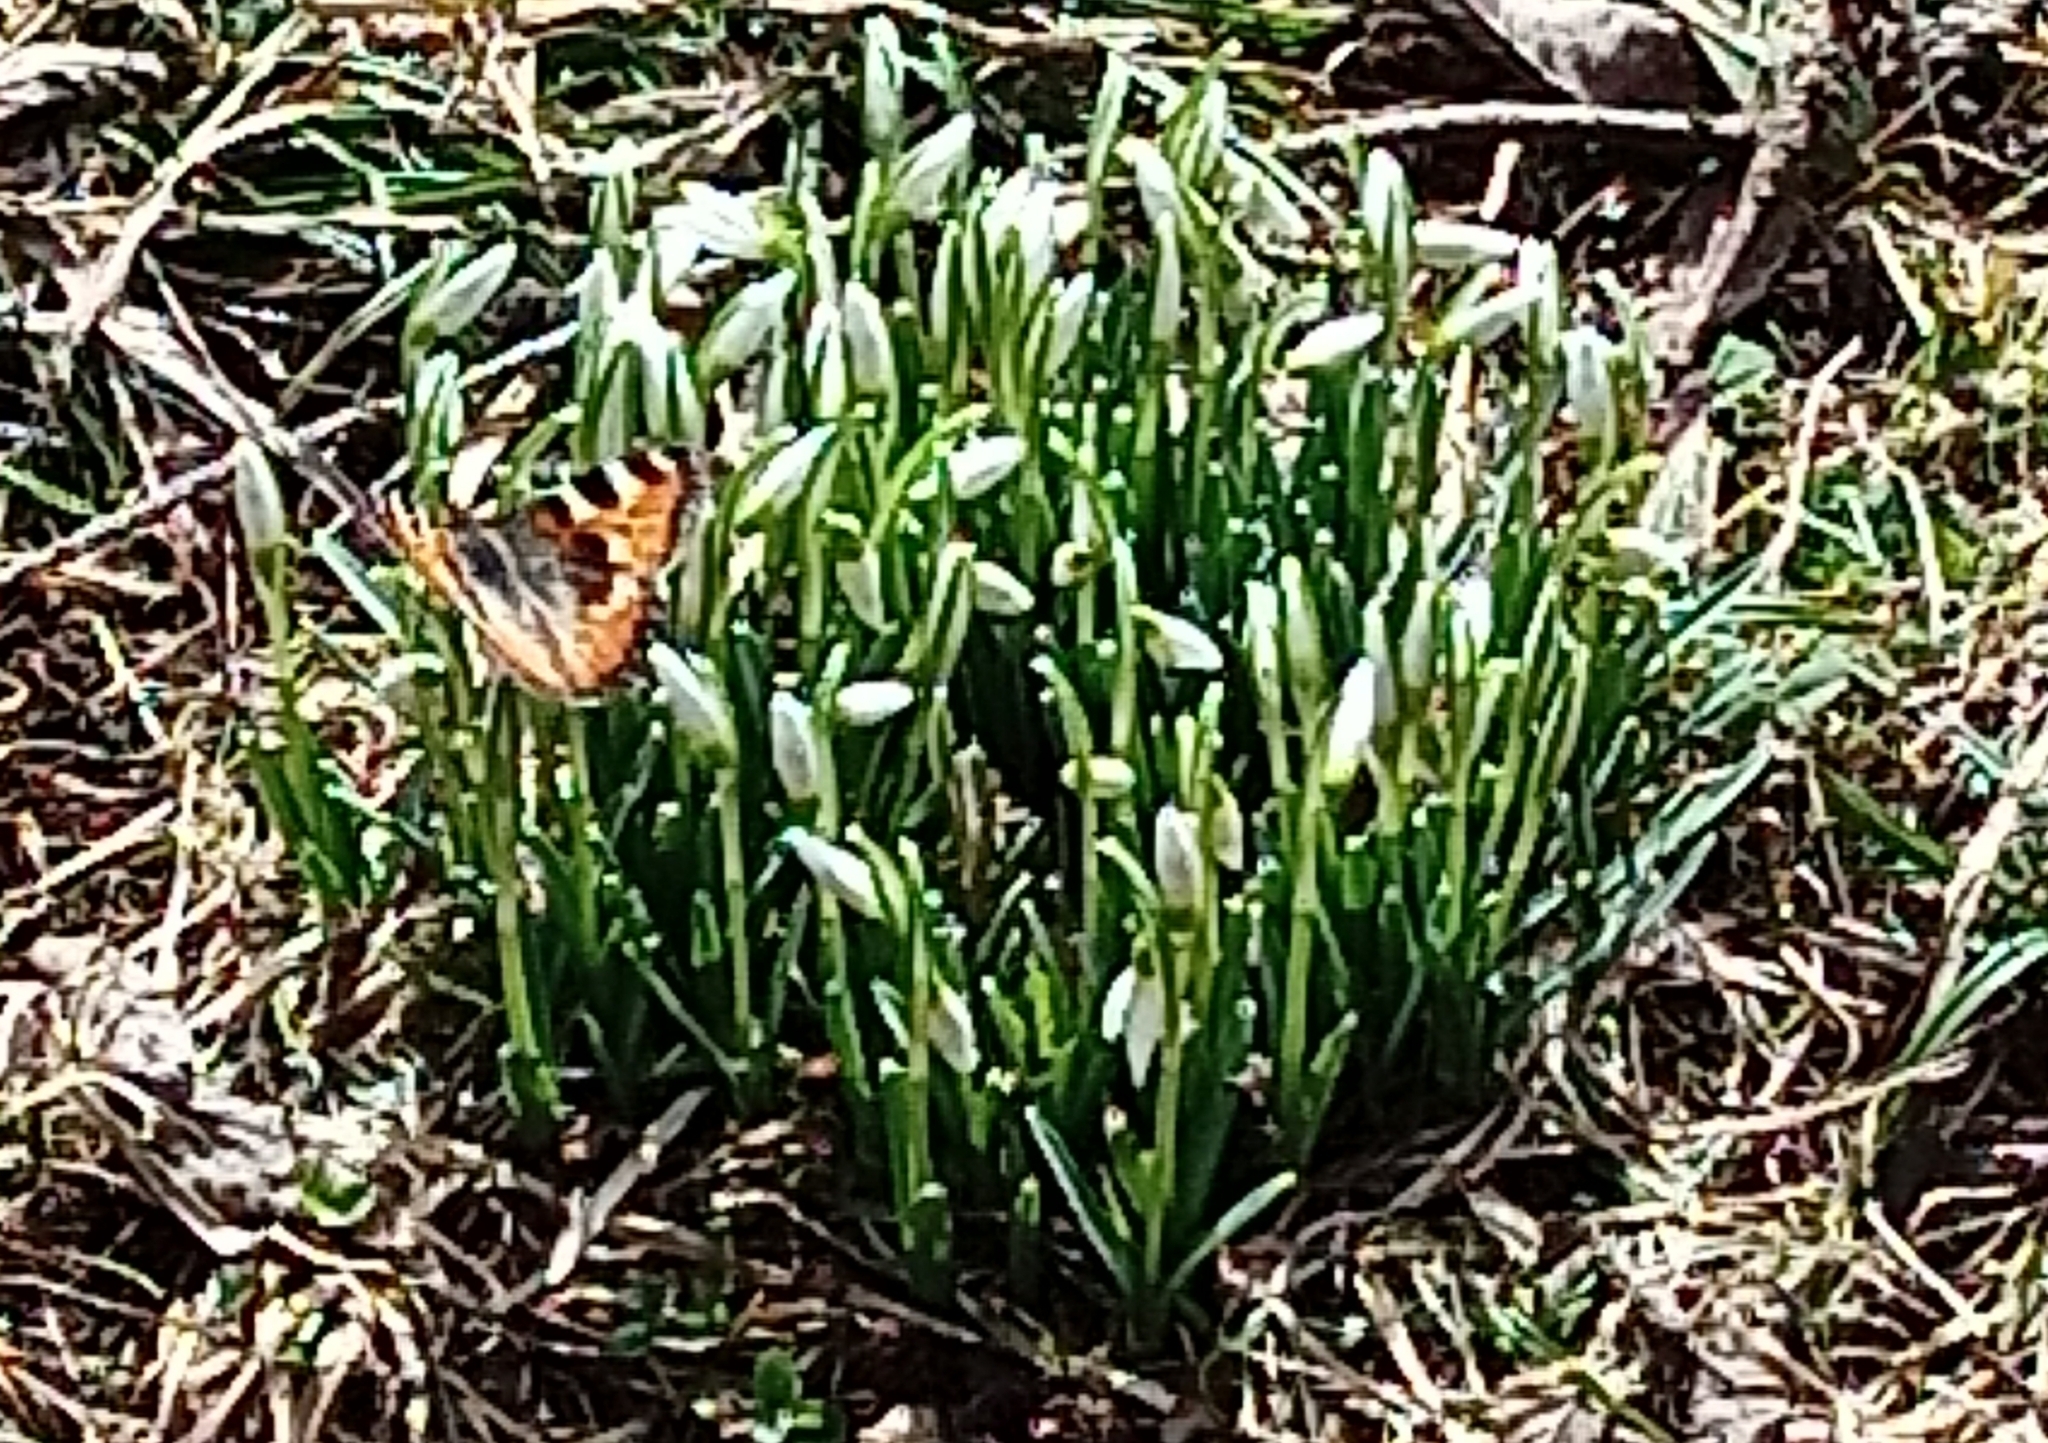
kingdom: Animalia
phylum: Arthropoda
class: Insecta
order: Lepidoptera
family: Nymphalidae
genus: Aglais
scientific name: Aglais urticae
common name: Small tortoiseshell
